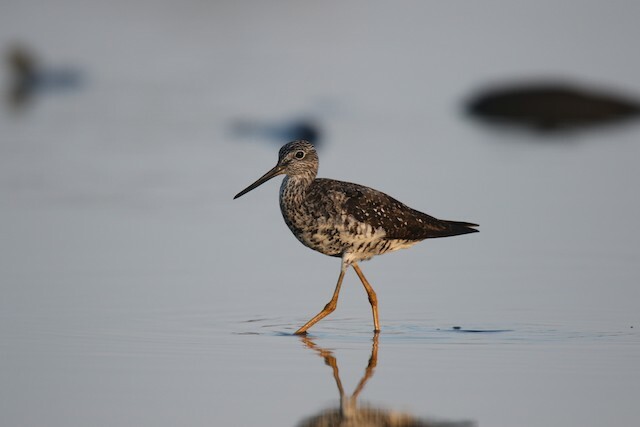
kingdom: Animalia
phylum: Chordata
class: Aves
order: Charadriiformes
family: Scolopacidae
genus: Tringa
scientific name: Tringa melanoleuca
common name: Greater yellowlegs
